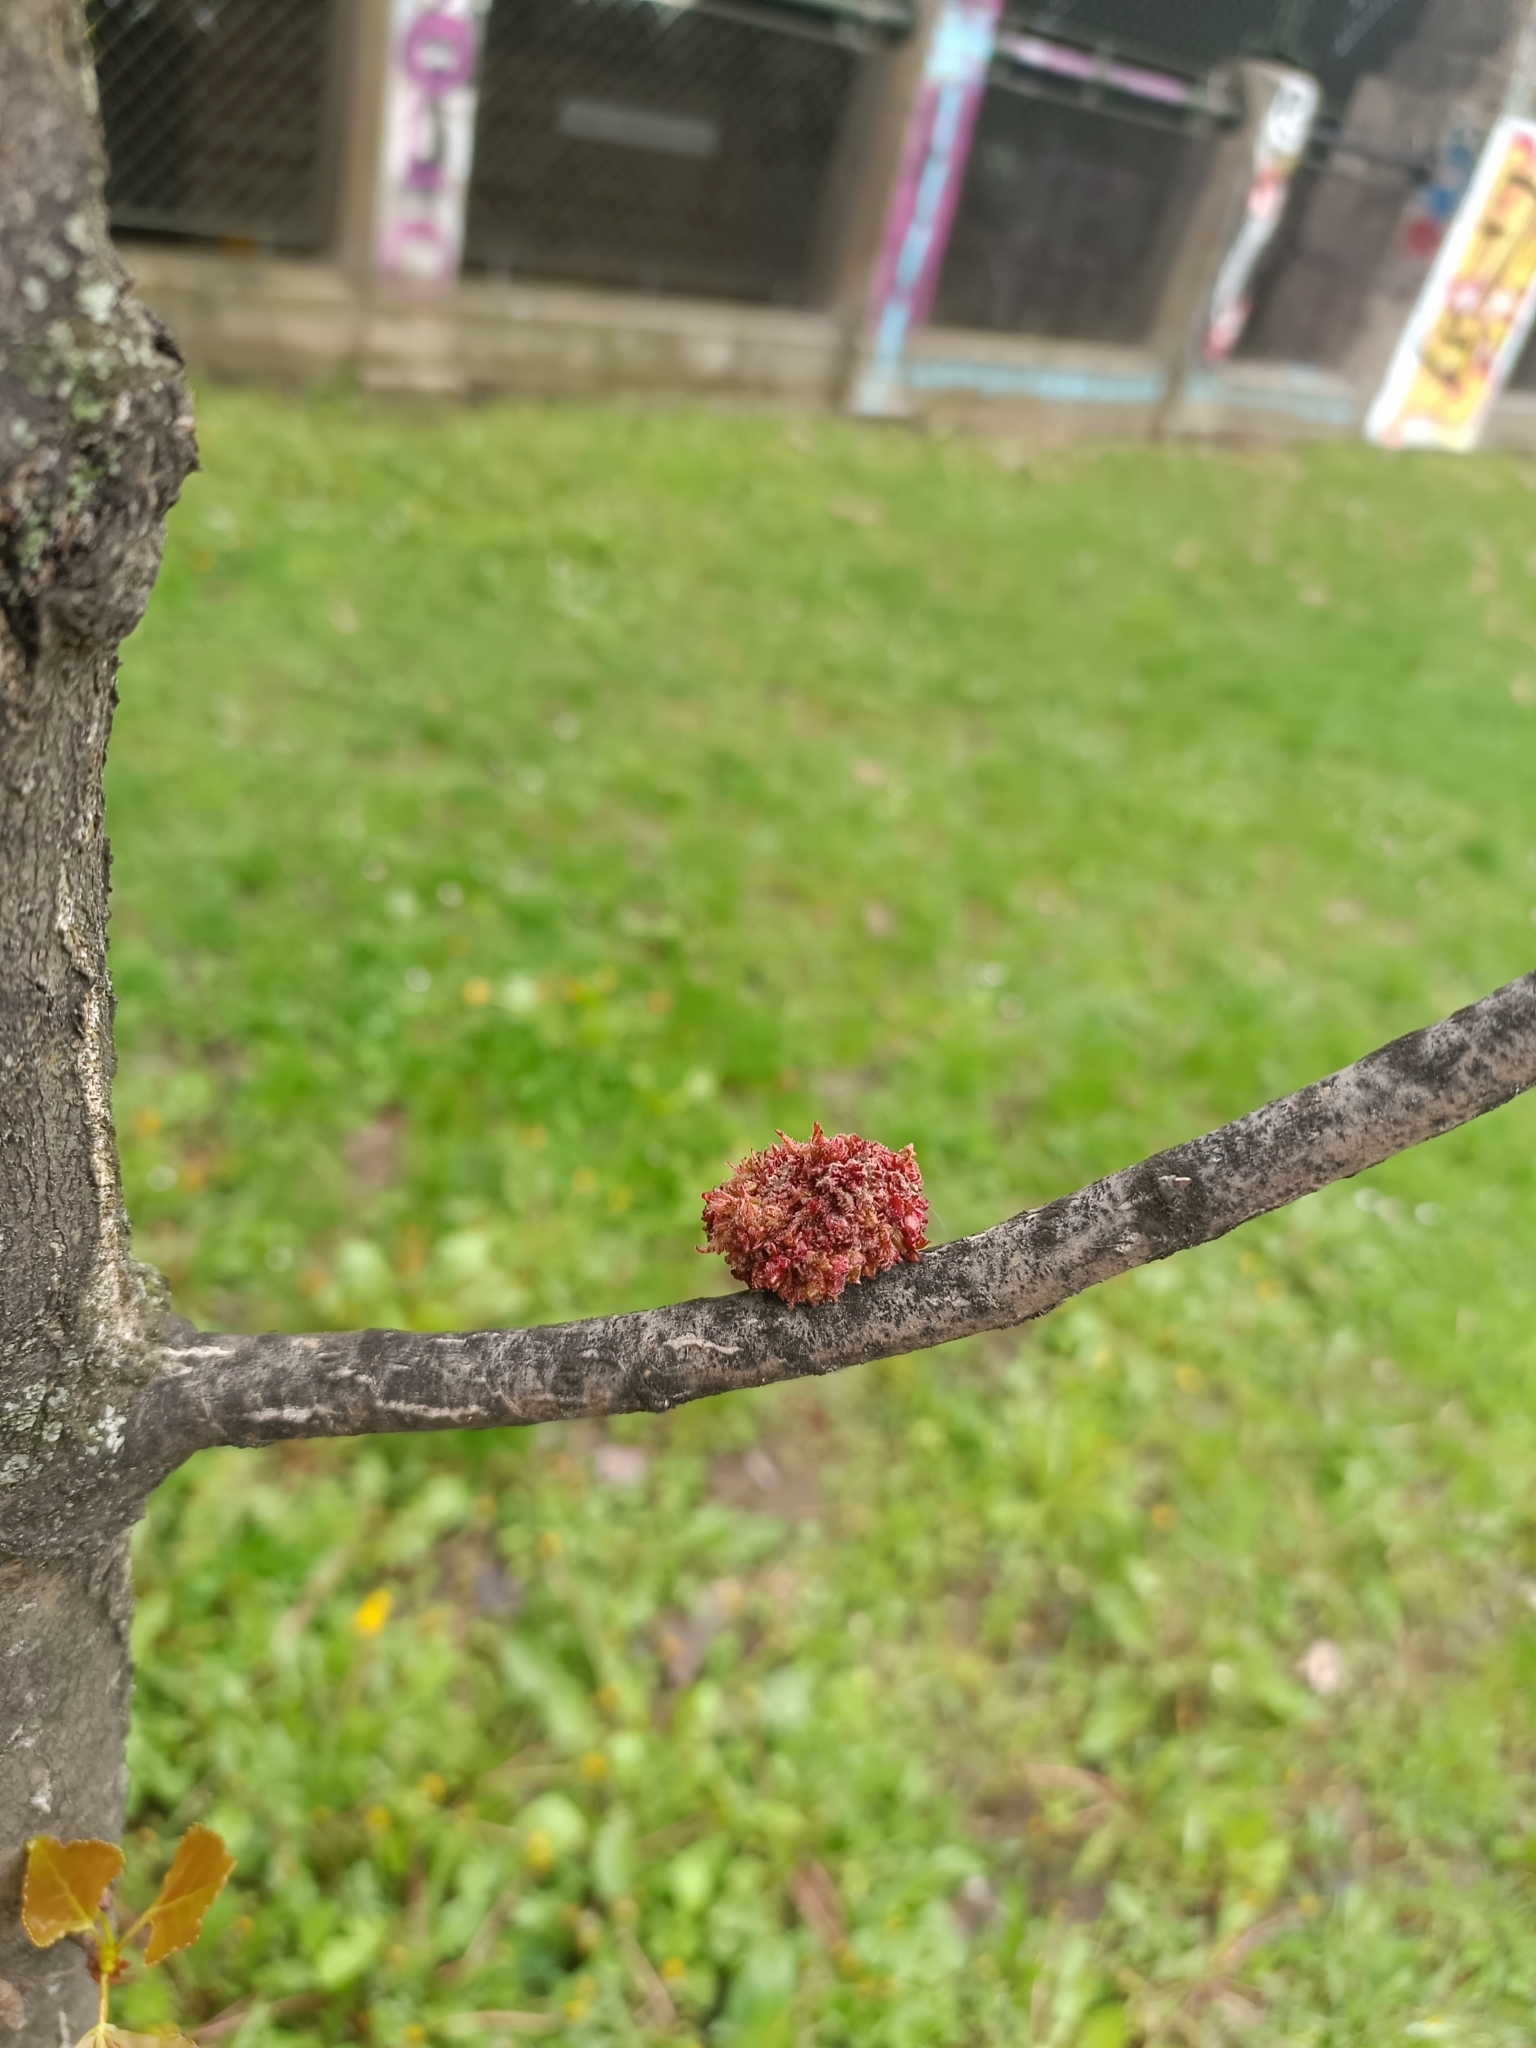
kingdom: Animalia
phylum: Arthropoda
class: Arachnida
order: Trombidiformes
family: Eriophyidae
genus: Aceria
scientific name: Aceria populi
